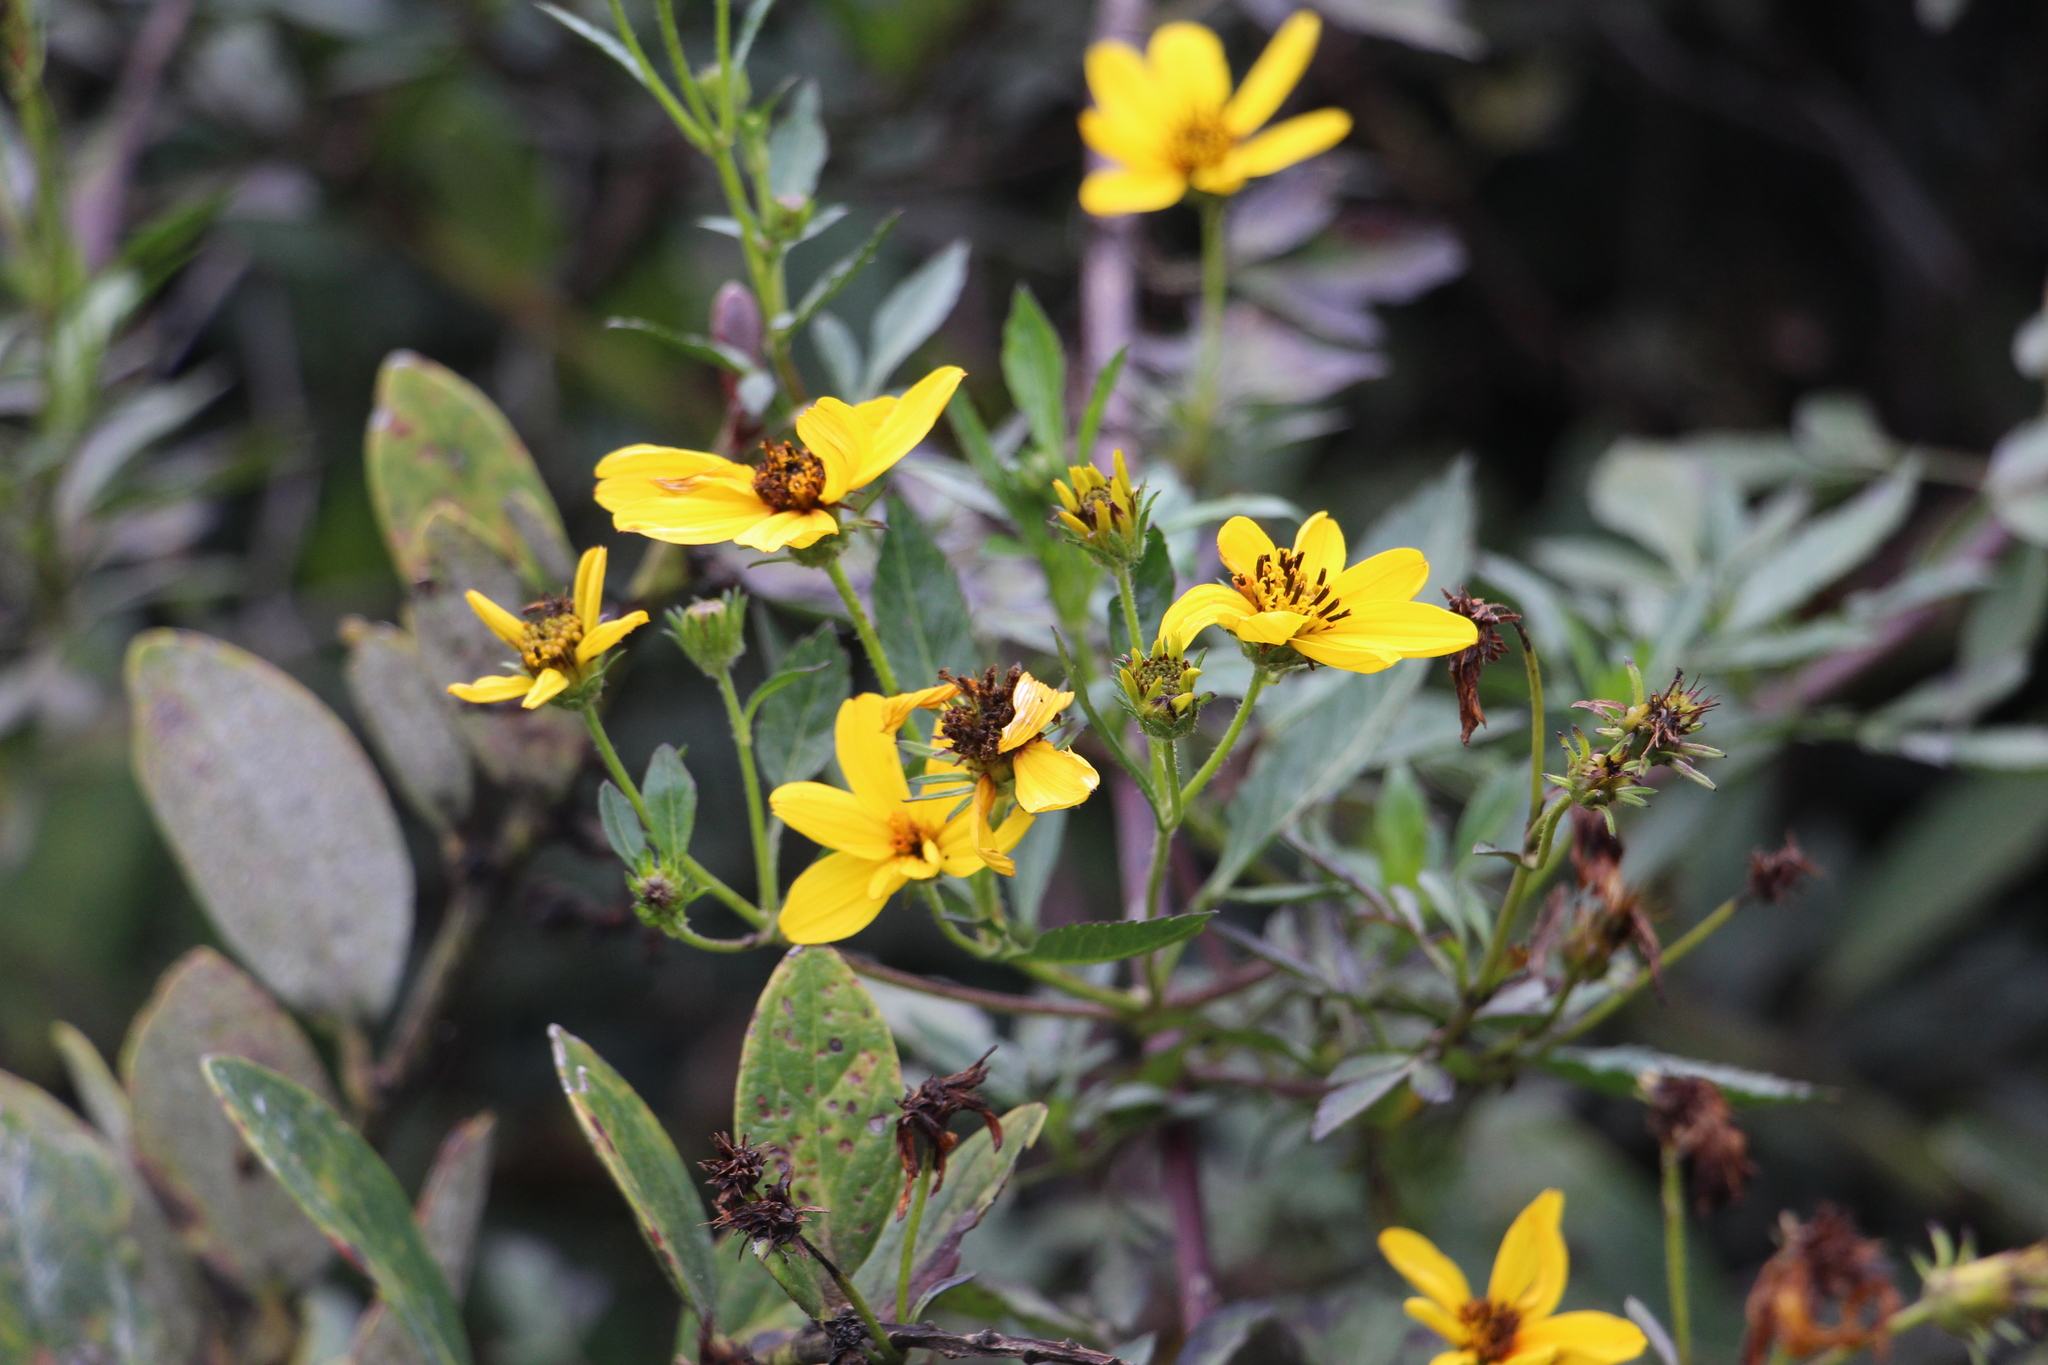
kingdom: Plantae
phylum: Tracheophyta
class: Magnoliopsida
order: Asterales
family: Asteraceae
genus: Bidens
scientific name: Bidens rubifolia
